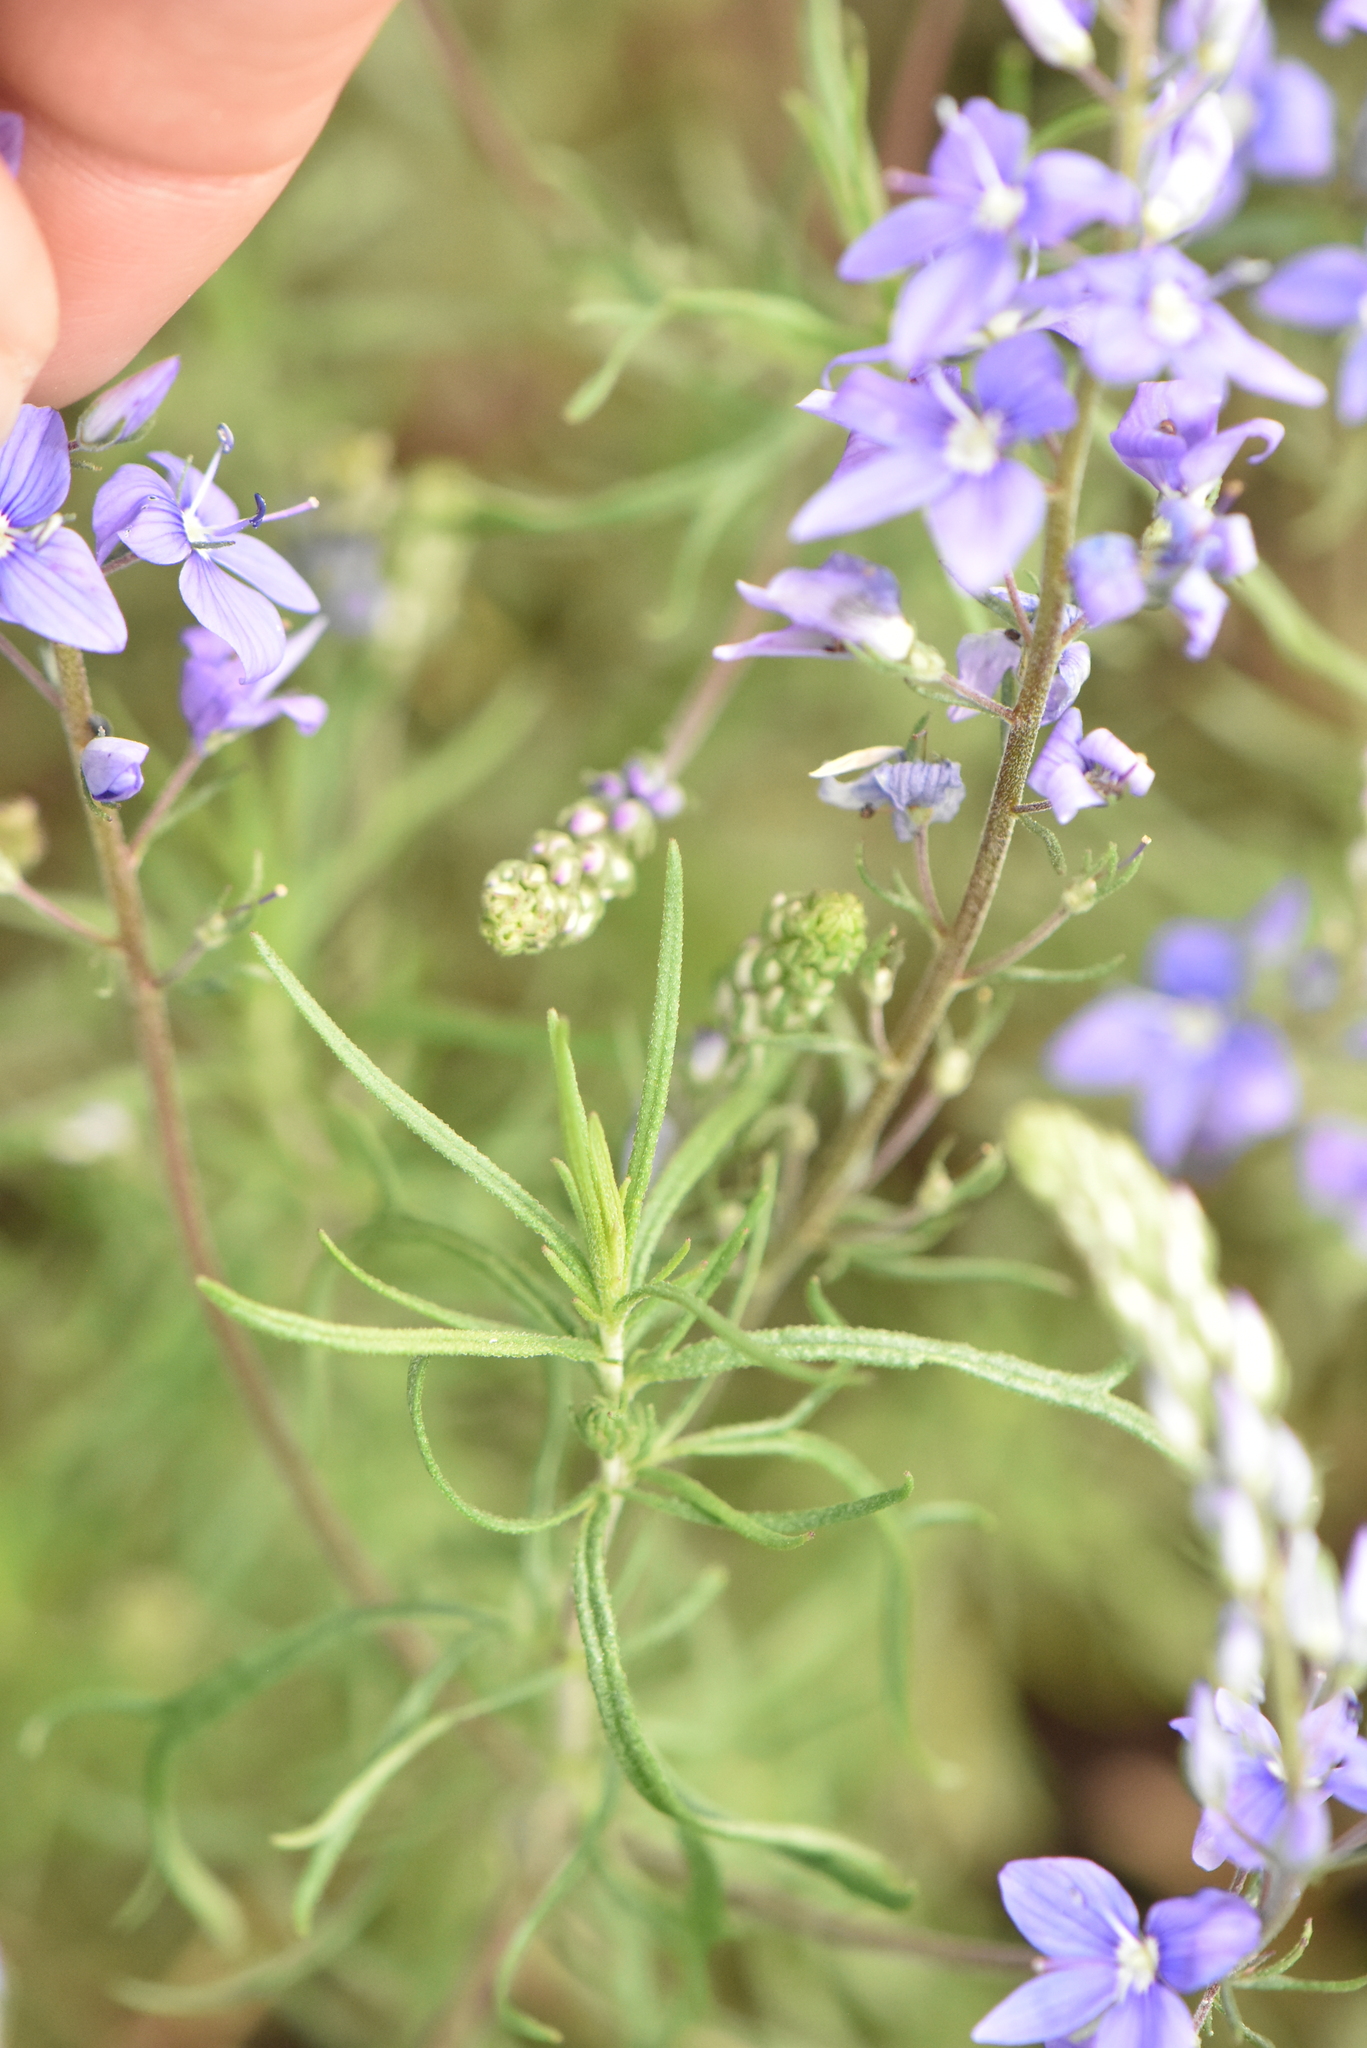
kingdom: Plantae
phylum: Tracheophyta
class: Magnoliopsida
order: Lamiales
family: Plantaginaceae
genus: Veronica
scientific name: Veronica multifida
